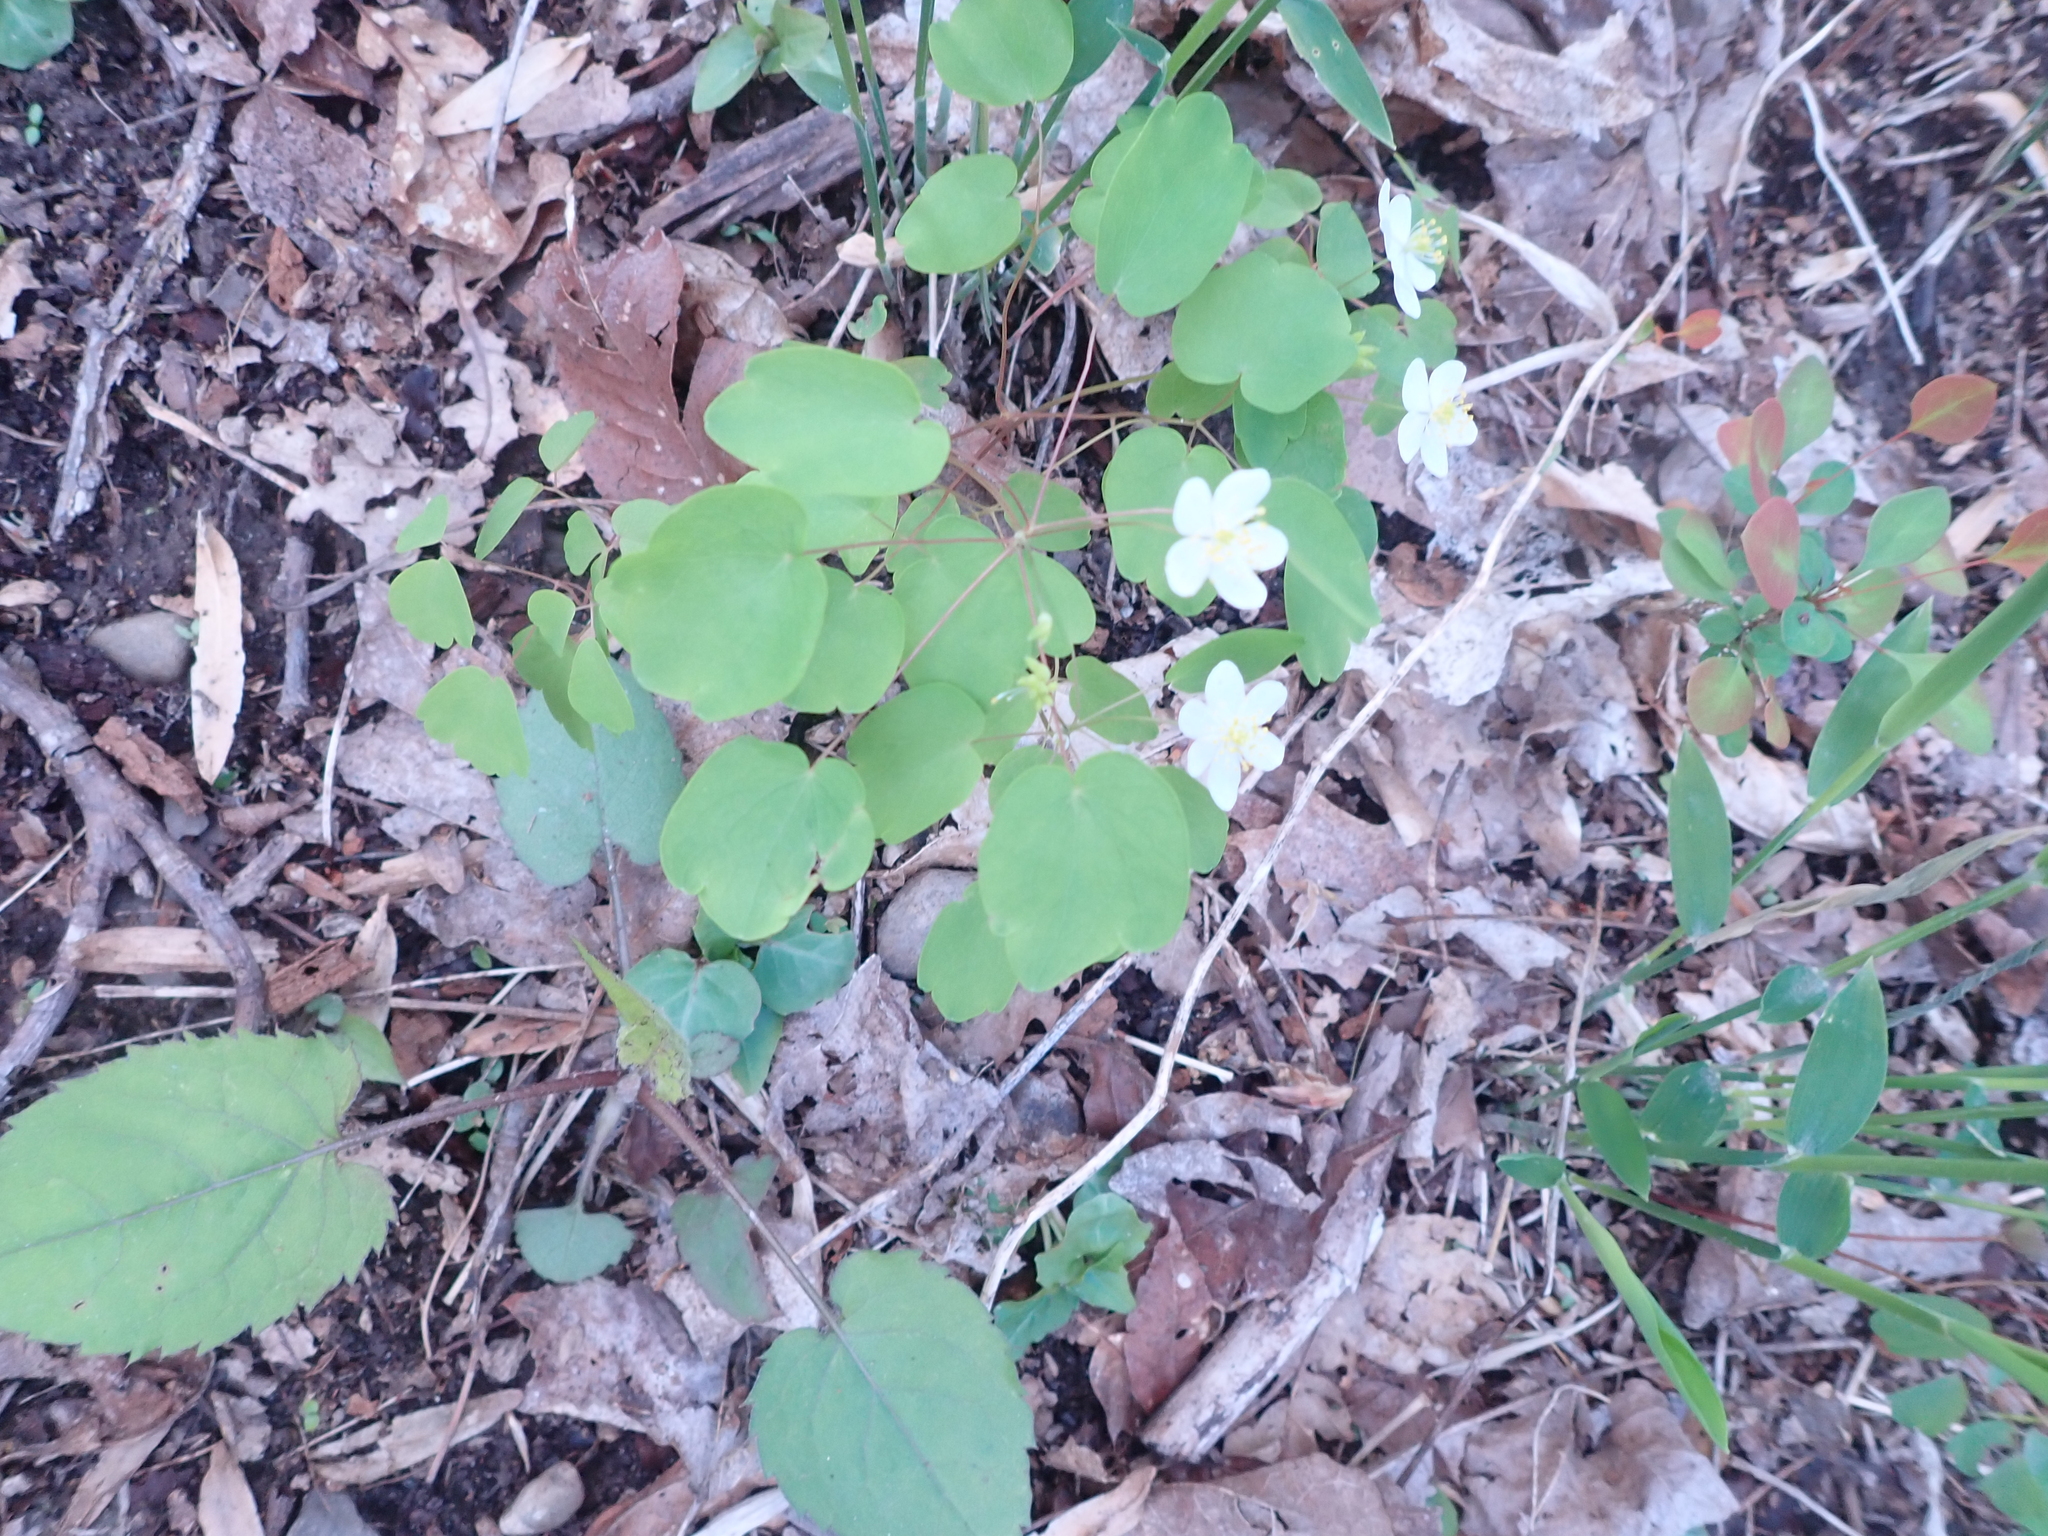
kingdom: Plantae
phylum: Tracheophyta
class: Magnoliopsida
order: Ranunculales
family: Ranunculaceae
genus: Thalictrum
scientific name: Thalictrum thalictroides
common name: Rue-anemone
